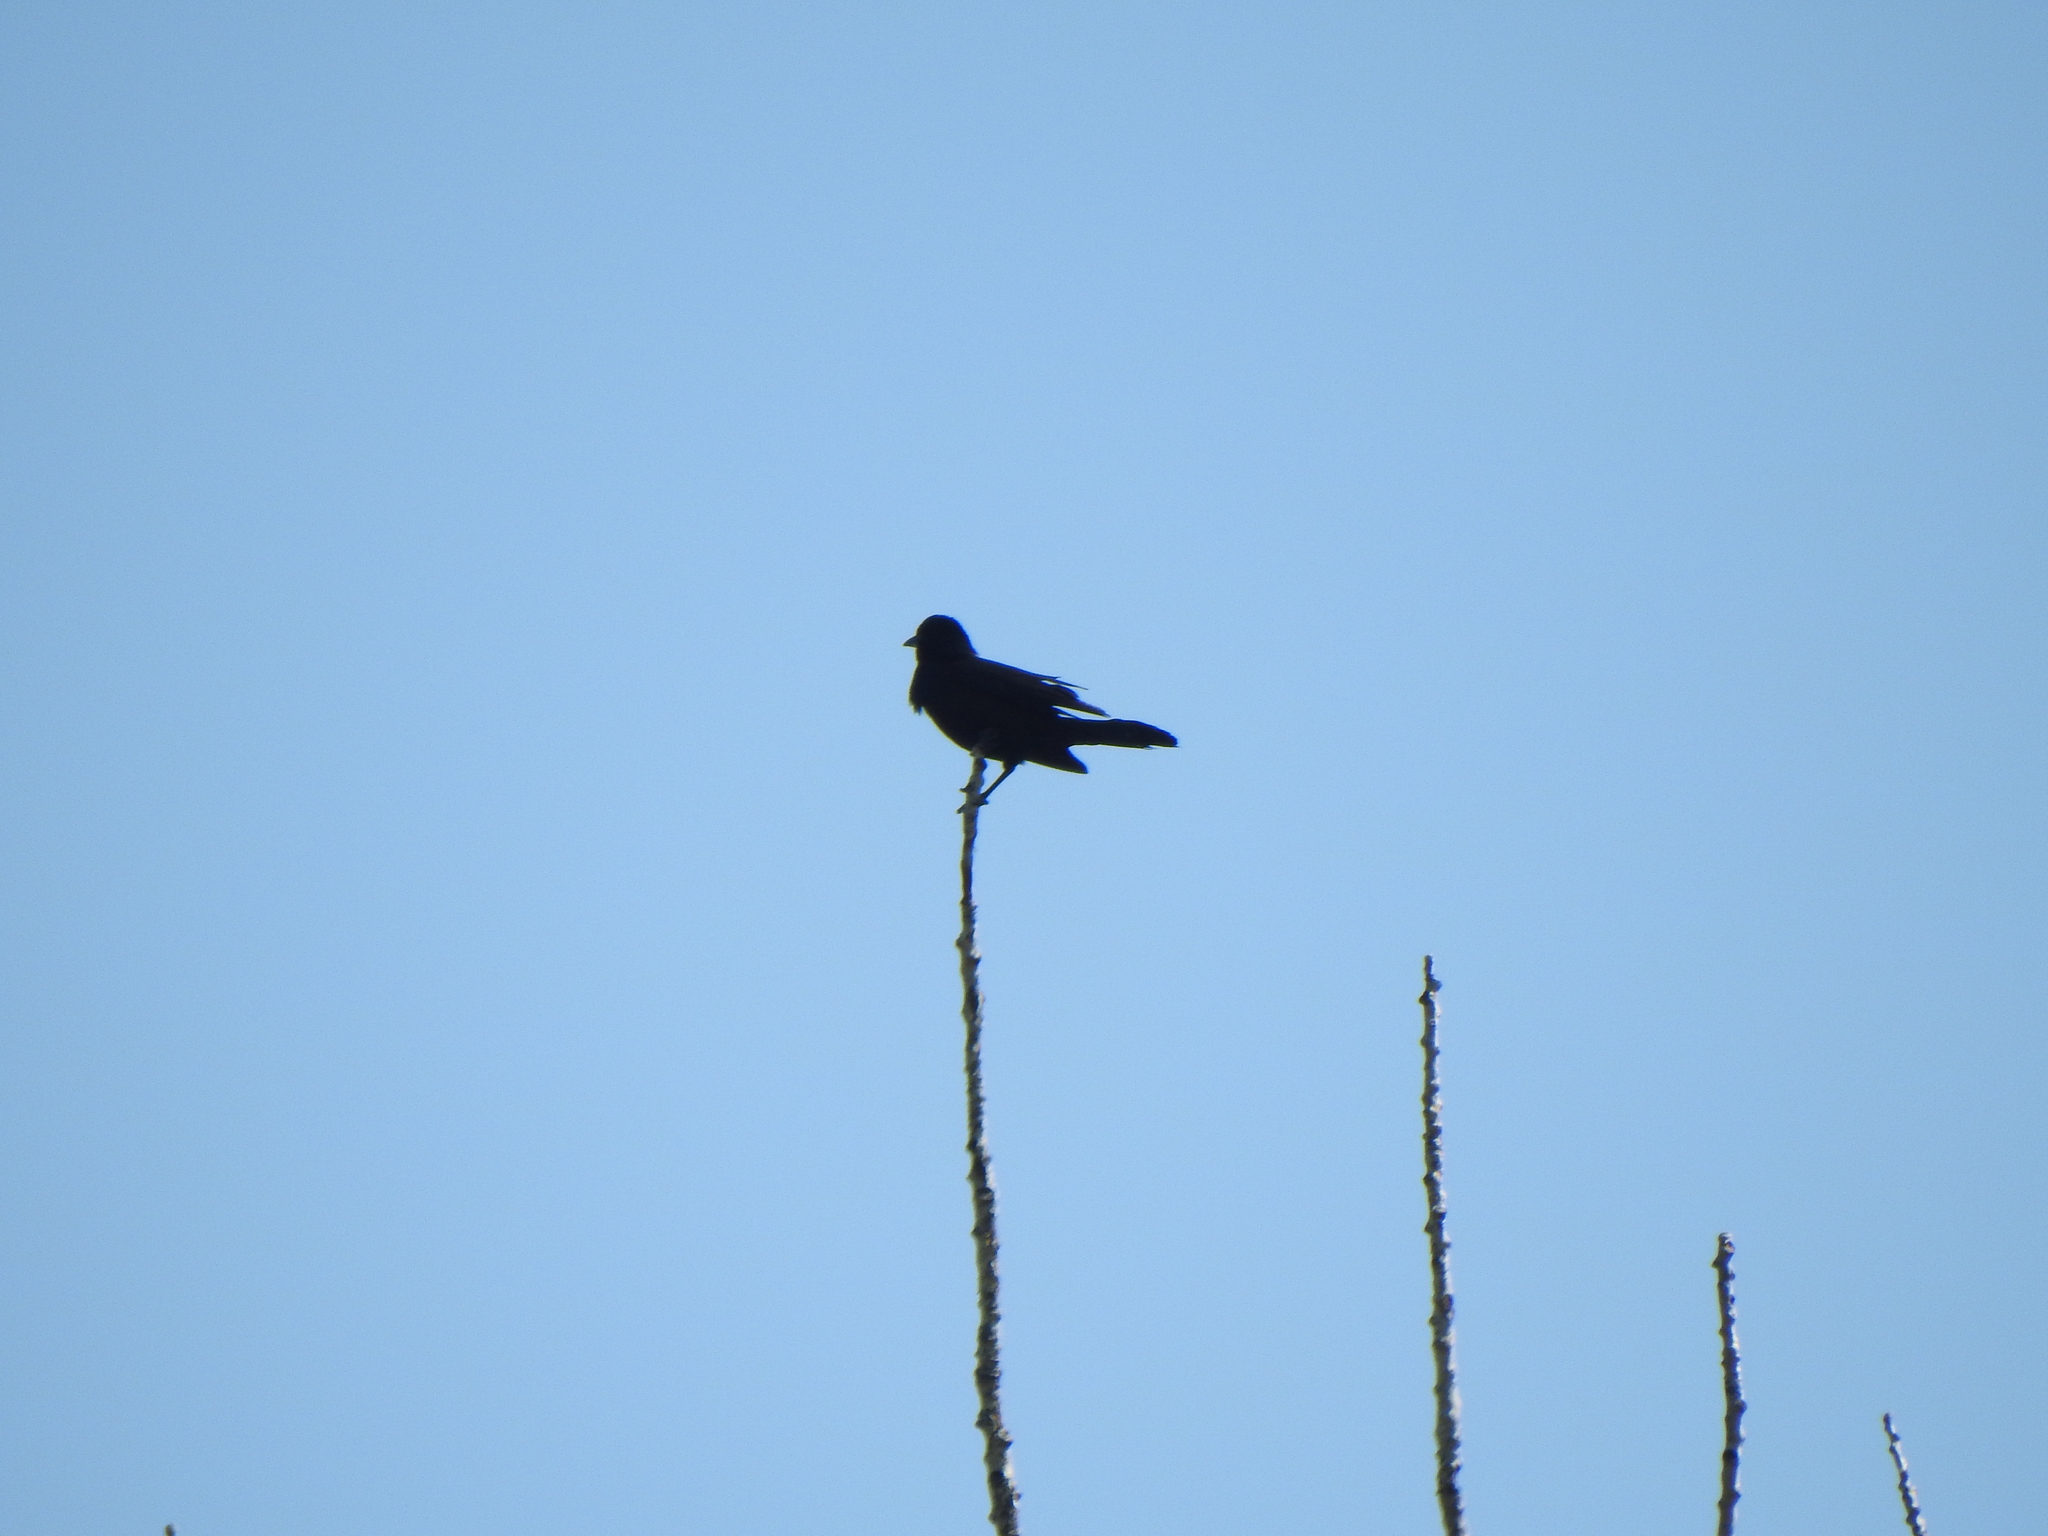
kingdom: Animalia
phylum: Chordata
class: Aves
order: Passeriformes
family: Icteridae
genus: Agelaius
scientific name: Agelaius phoeniceus
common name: Red-winged blackbird
